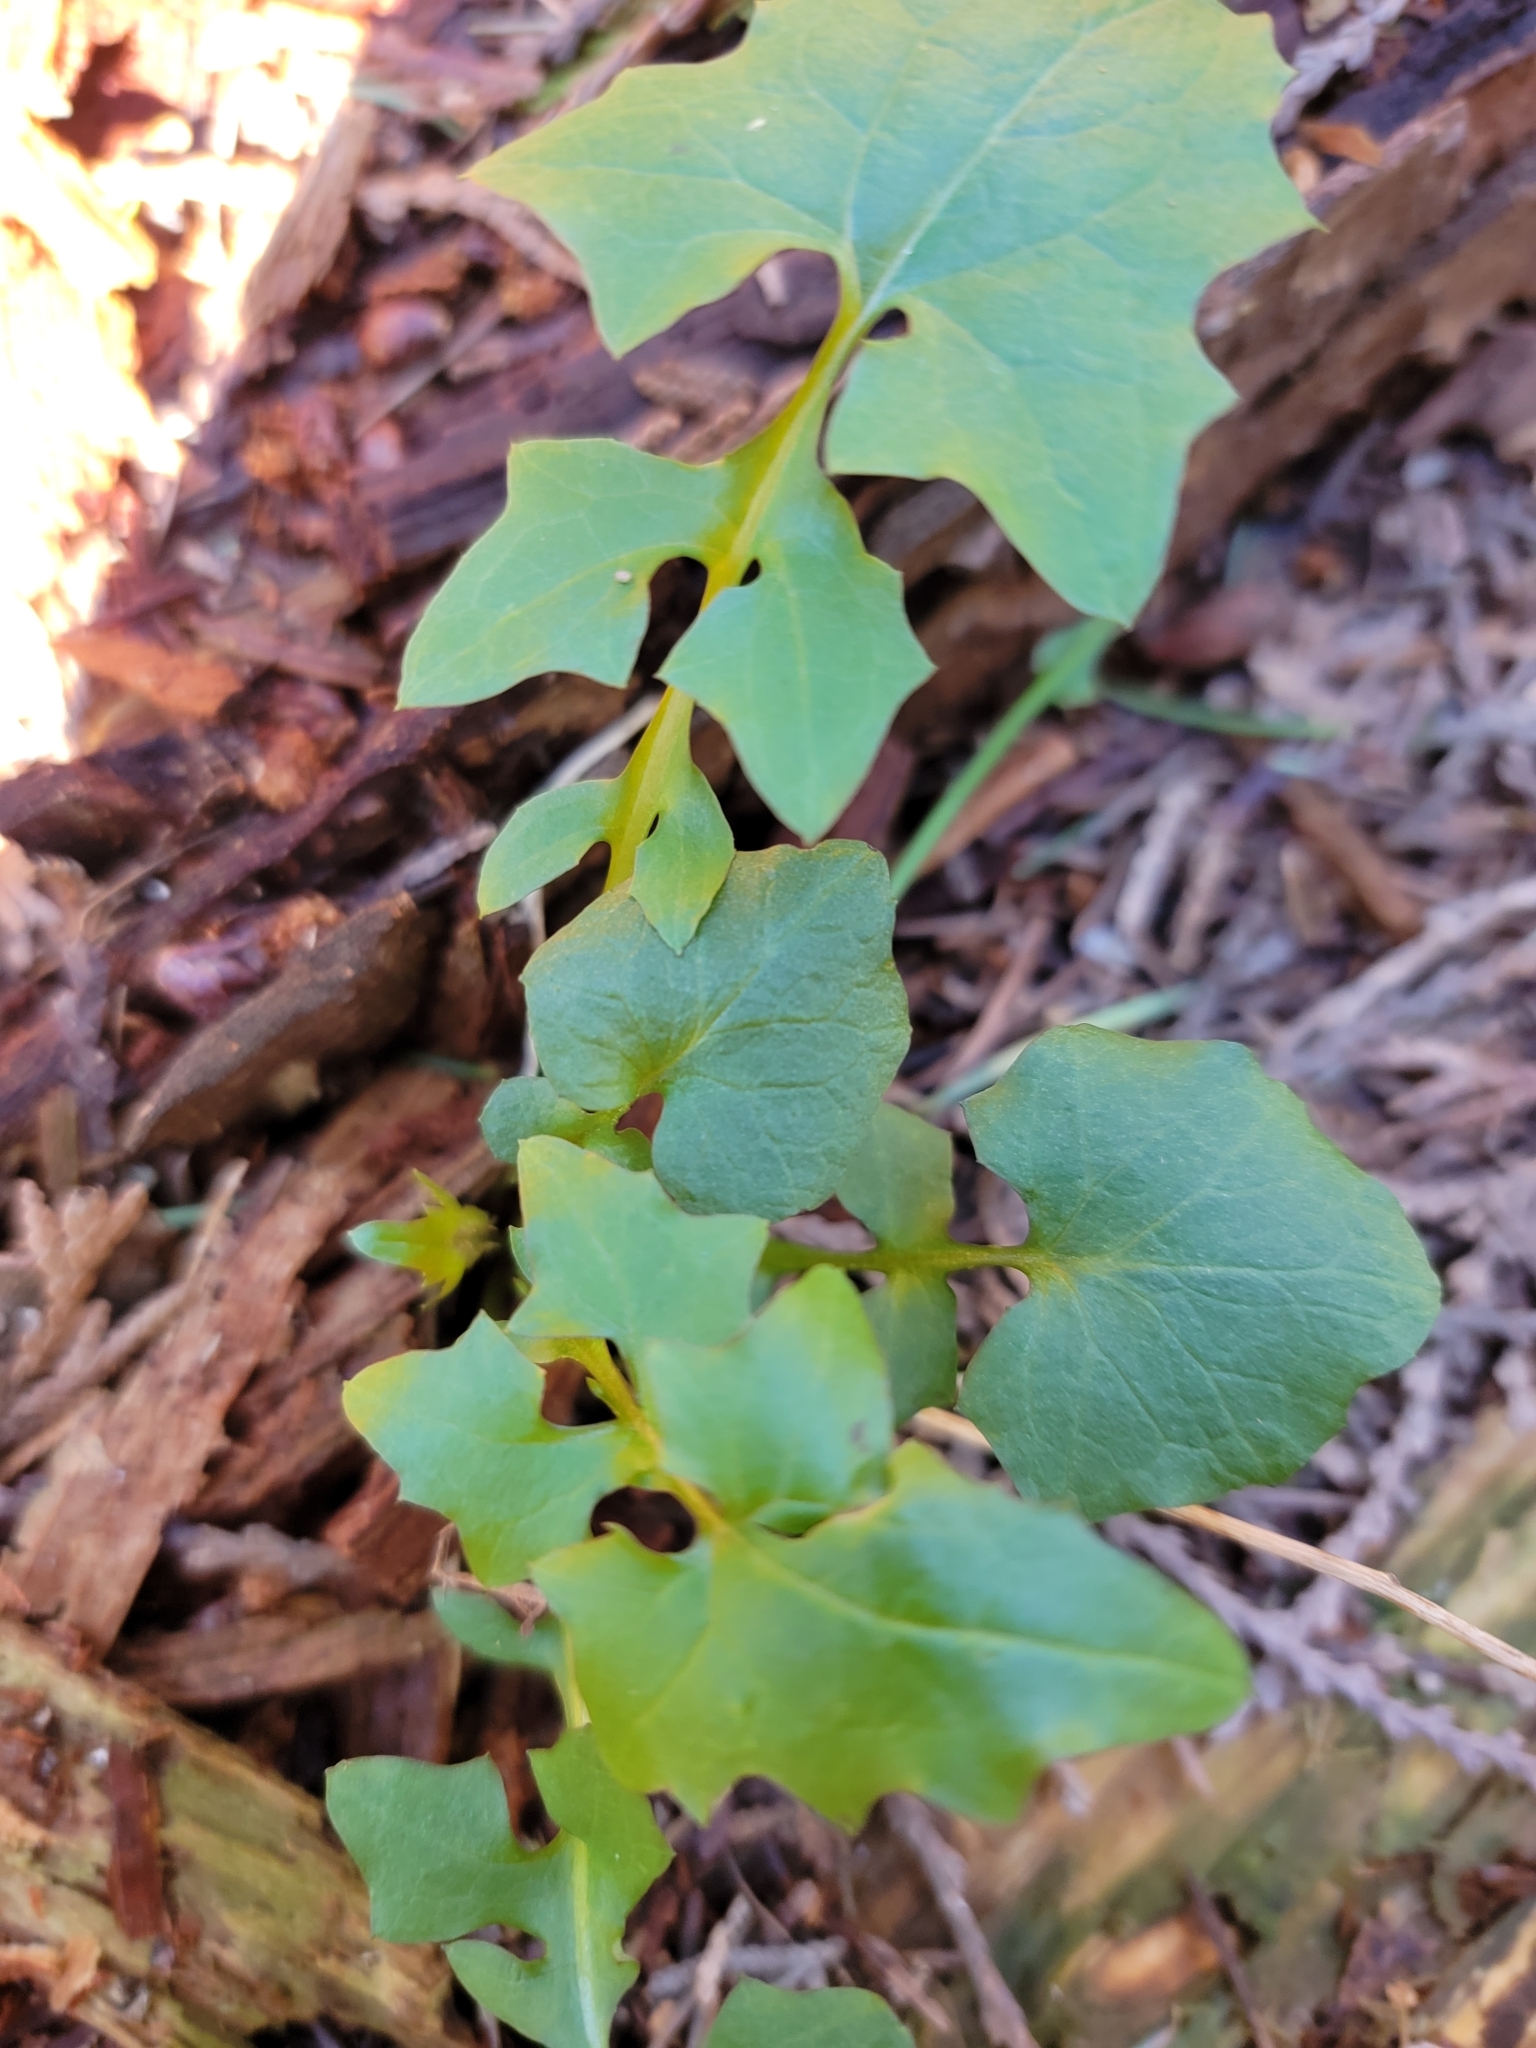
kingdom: Plantae
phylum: Tracheophyta
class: Magnoliopsida
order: Asterales
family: Asteraceae
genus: Mycelis
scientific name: Mycelis muralis
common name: Wall lettuce
